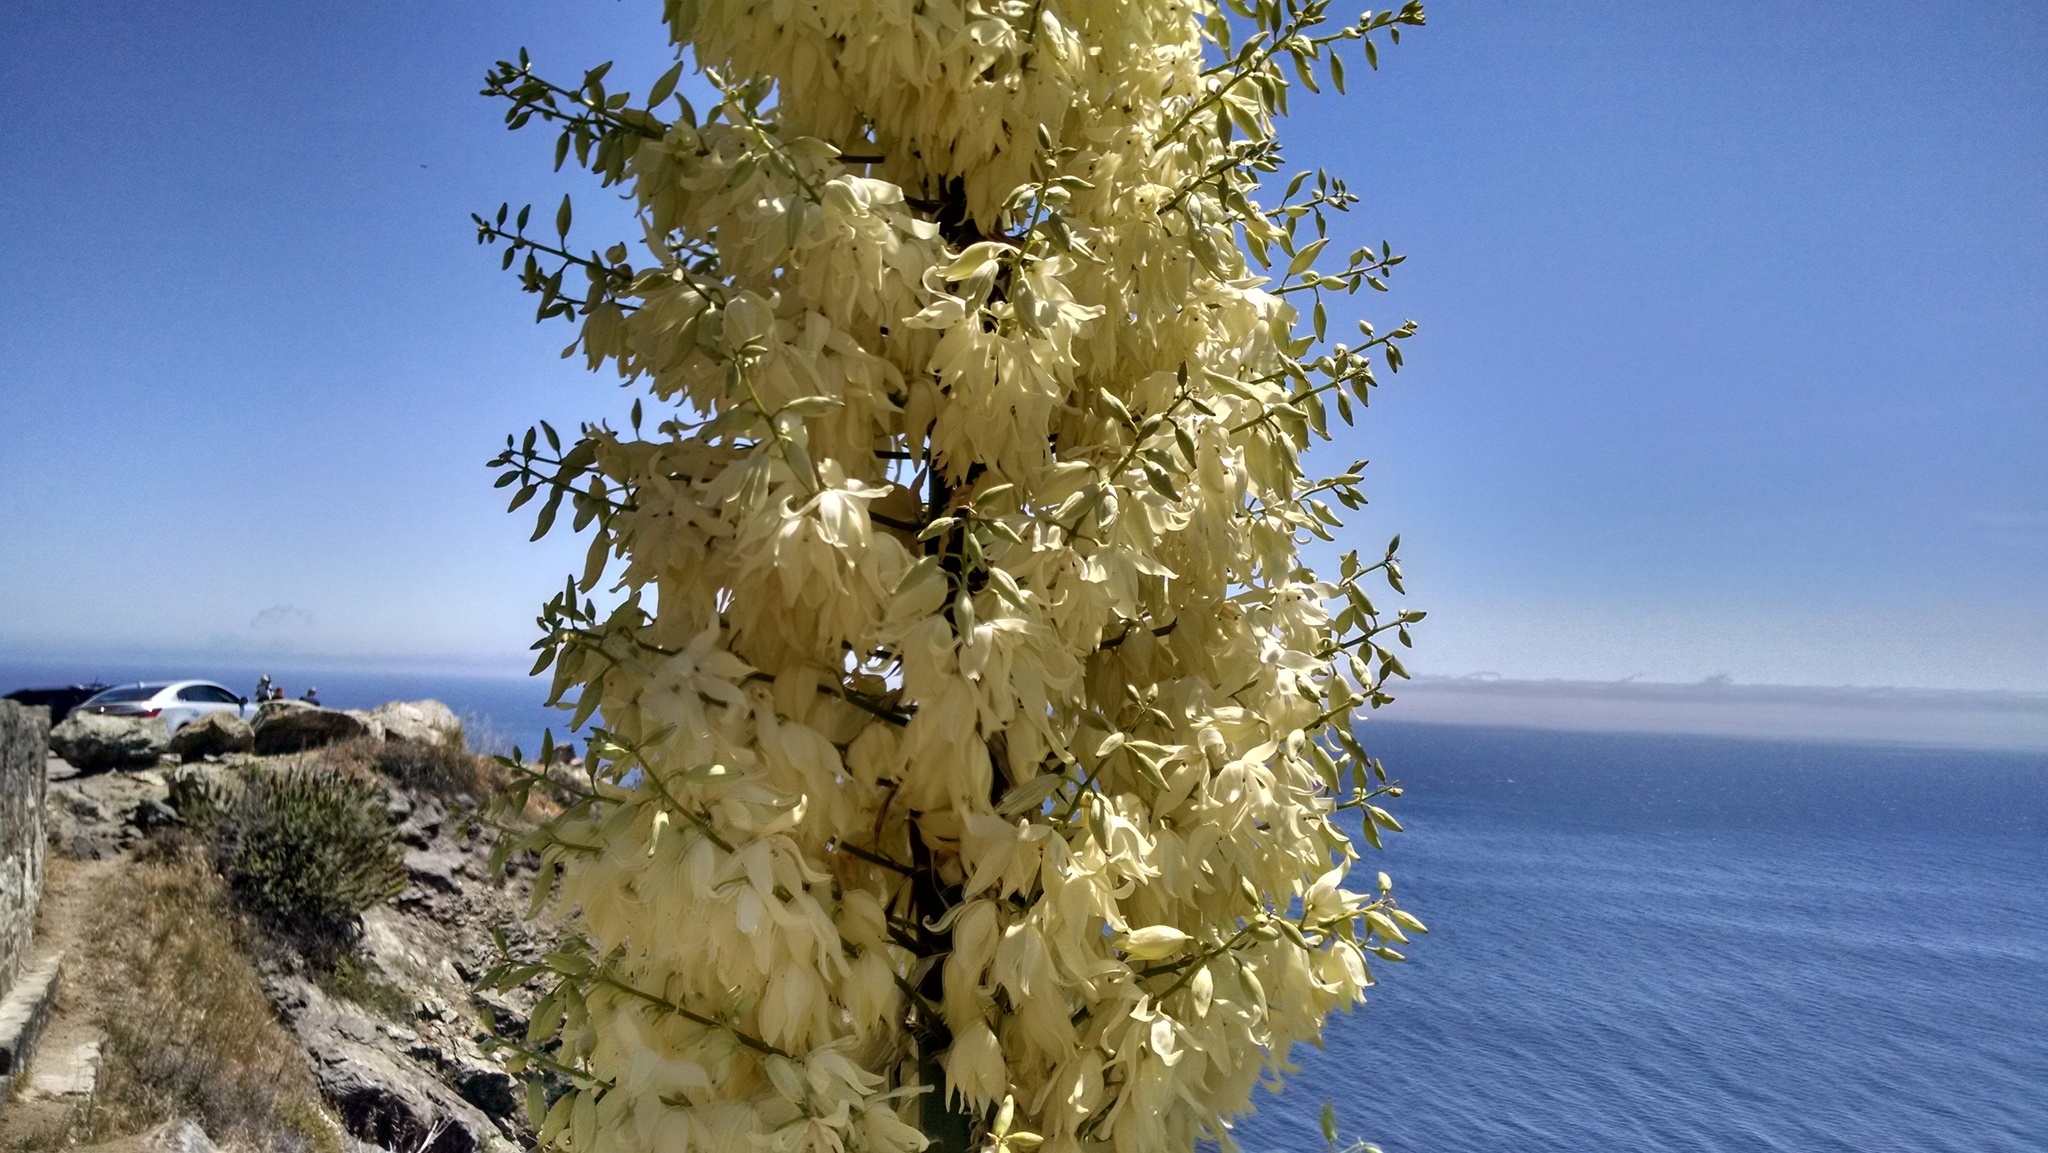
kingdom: Plantae
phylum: Tracheophyta
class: Liliopsida
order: Asparagales
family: Asparagaceae
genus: Hesperoyucca
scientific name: Hesperoyucca whipplei
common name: Our lord's-candle
